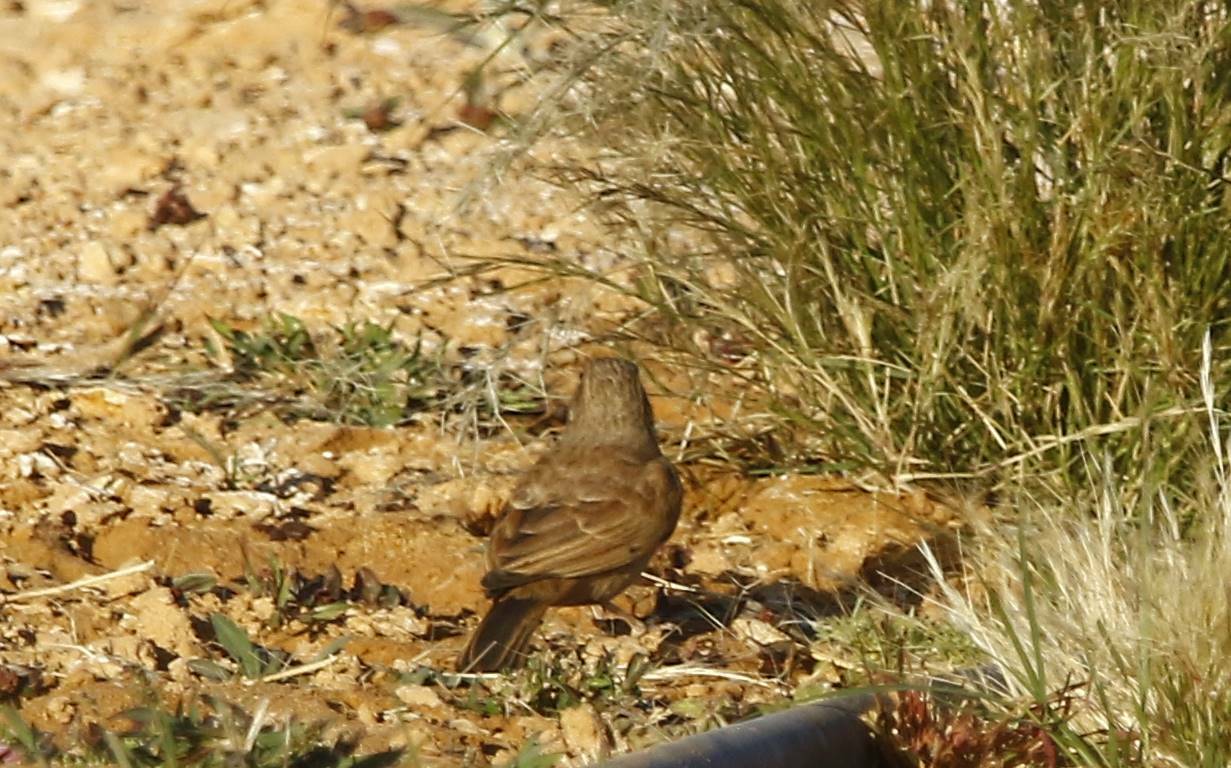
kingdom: Animalia
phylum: Chordata
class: Aves
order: Passeriformes
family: Emberizidae
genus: Emberiza
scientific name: Emberiza sahari
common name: House bunting
